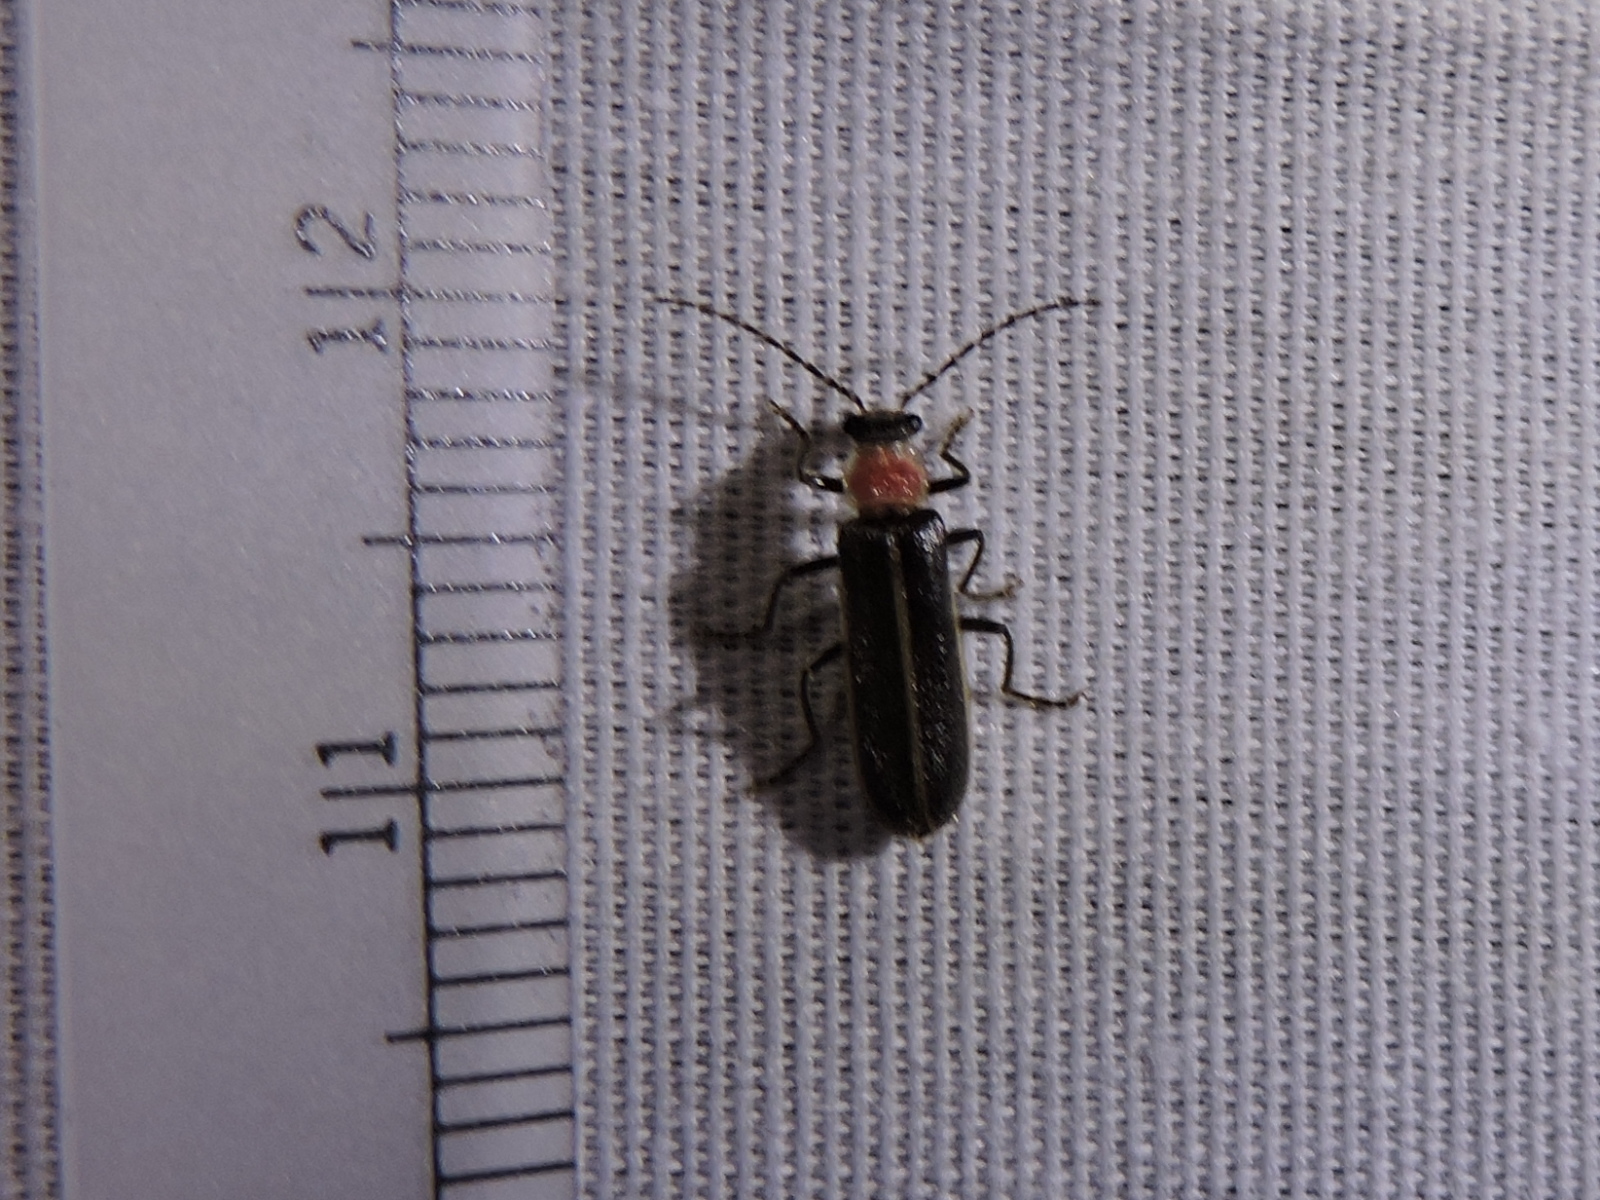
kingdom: Animalia
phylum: Arthropoda
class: Insecta
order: Coleoptera
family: Cantharidae
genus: Podabrus
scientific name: Podabrus quadratus
